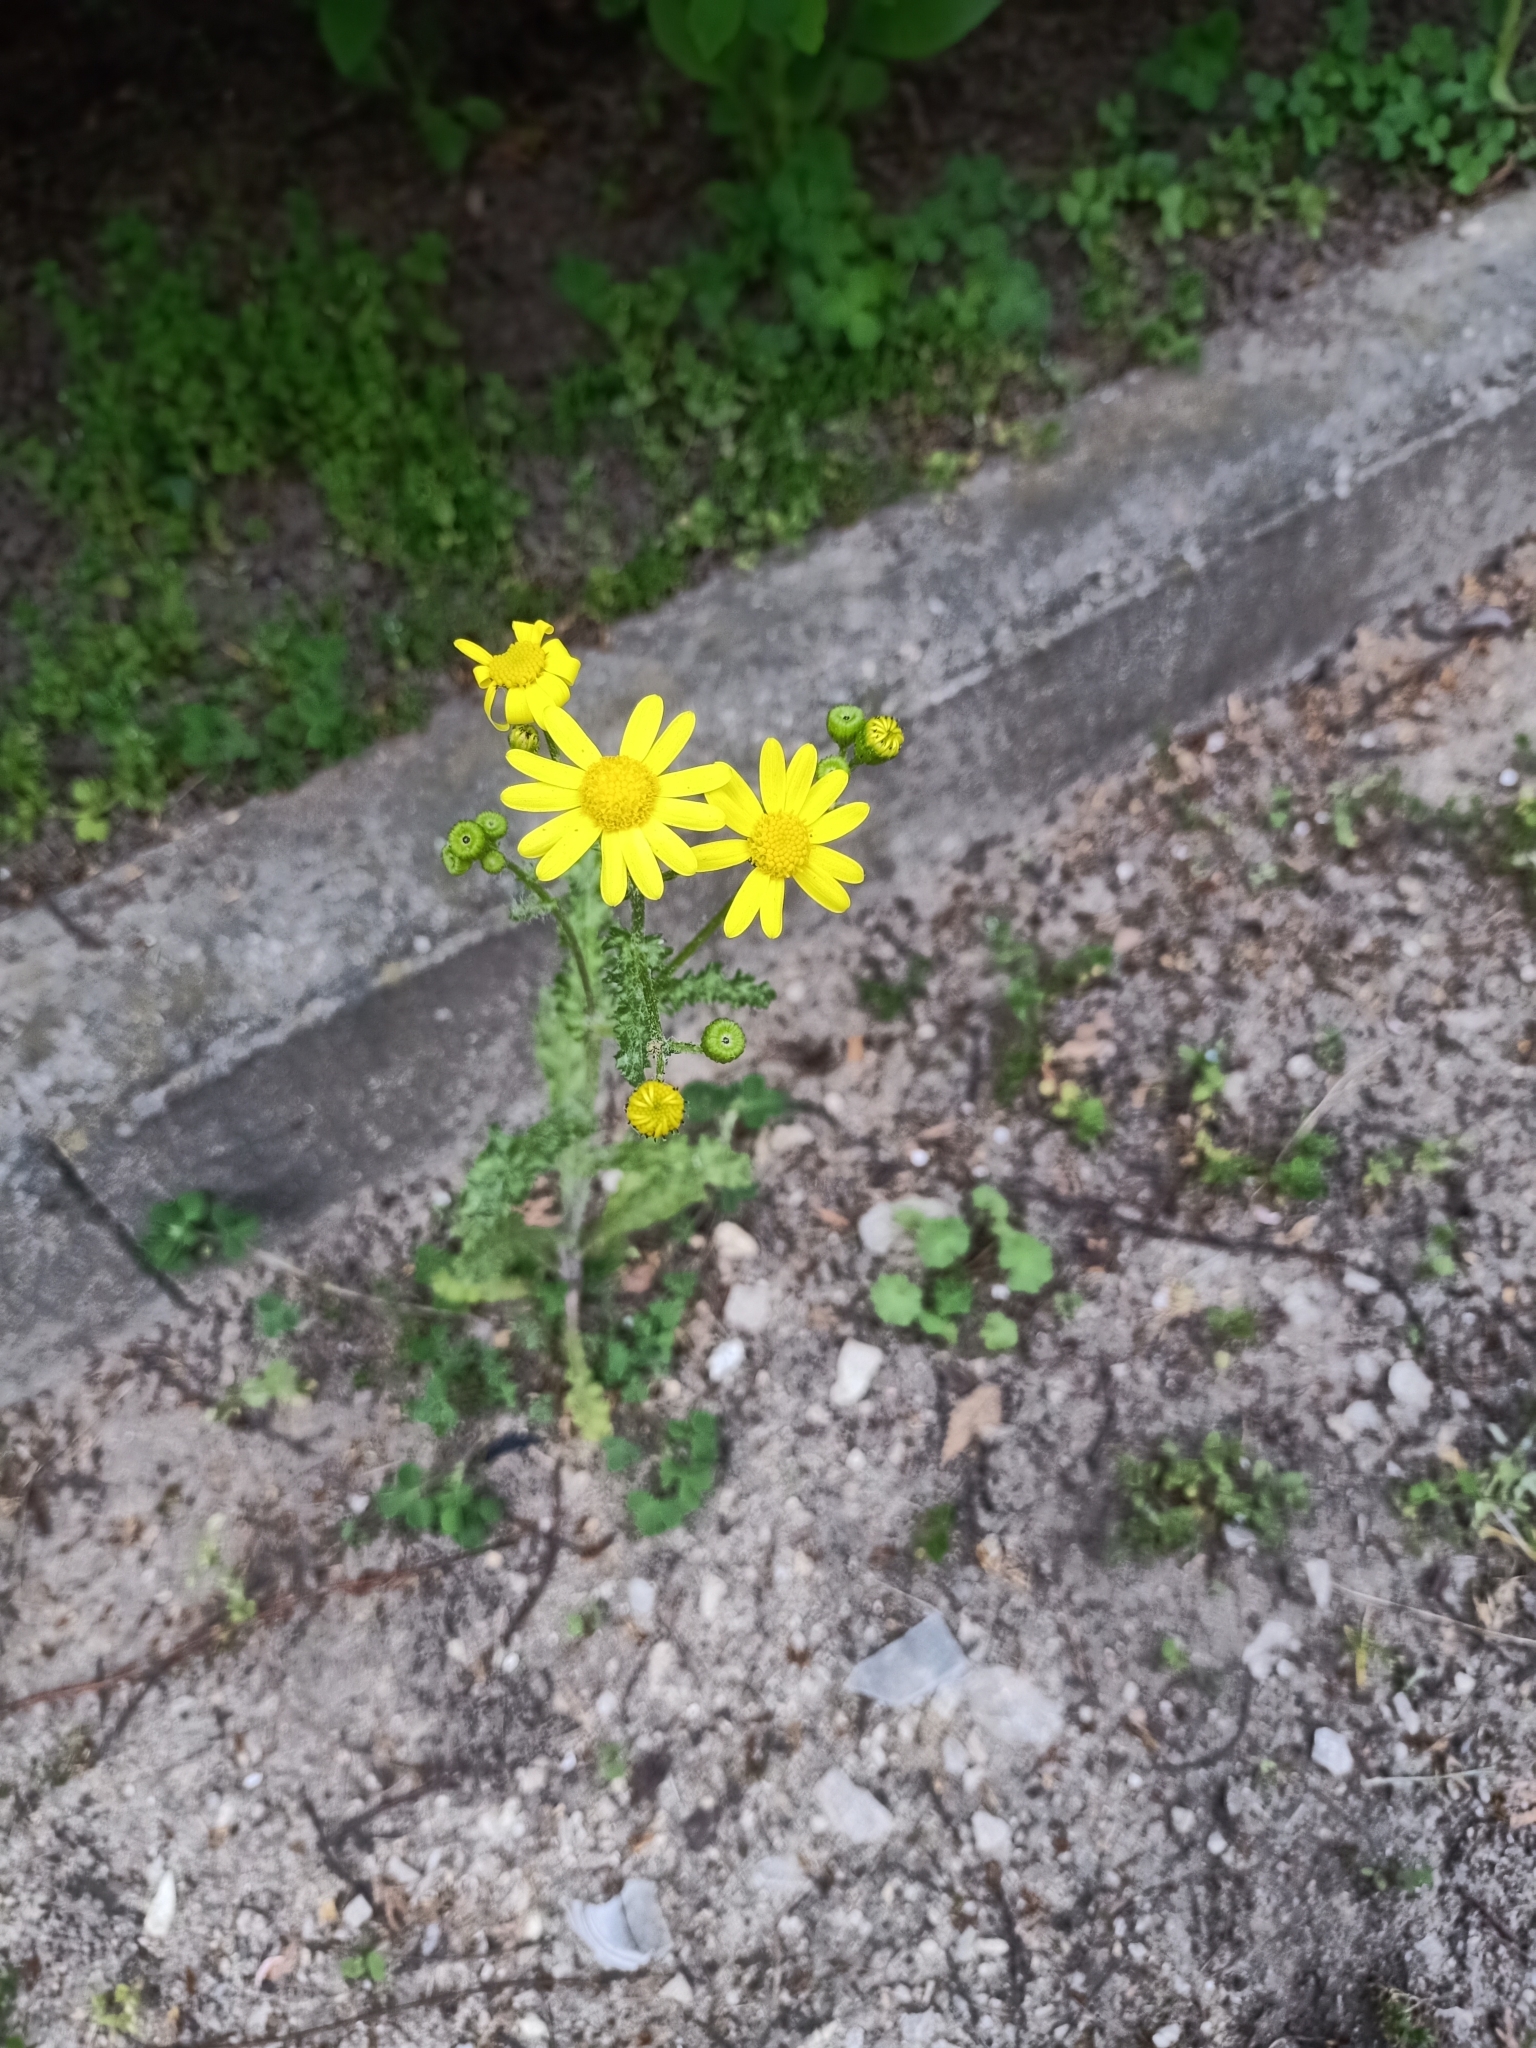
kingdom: Plantae
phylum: Tracheophyta
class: Magnoliopsida
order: Asterales
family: Asteraceae
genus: Senecio
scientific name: Senecio vernalis
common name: Eastern groundsel
